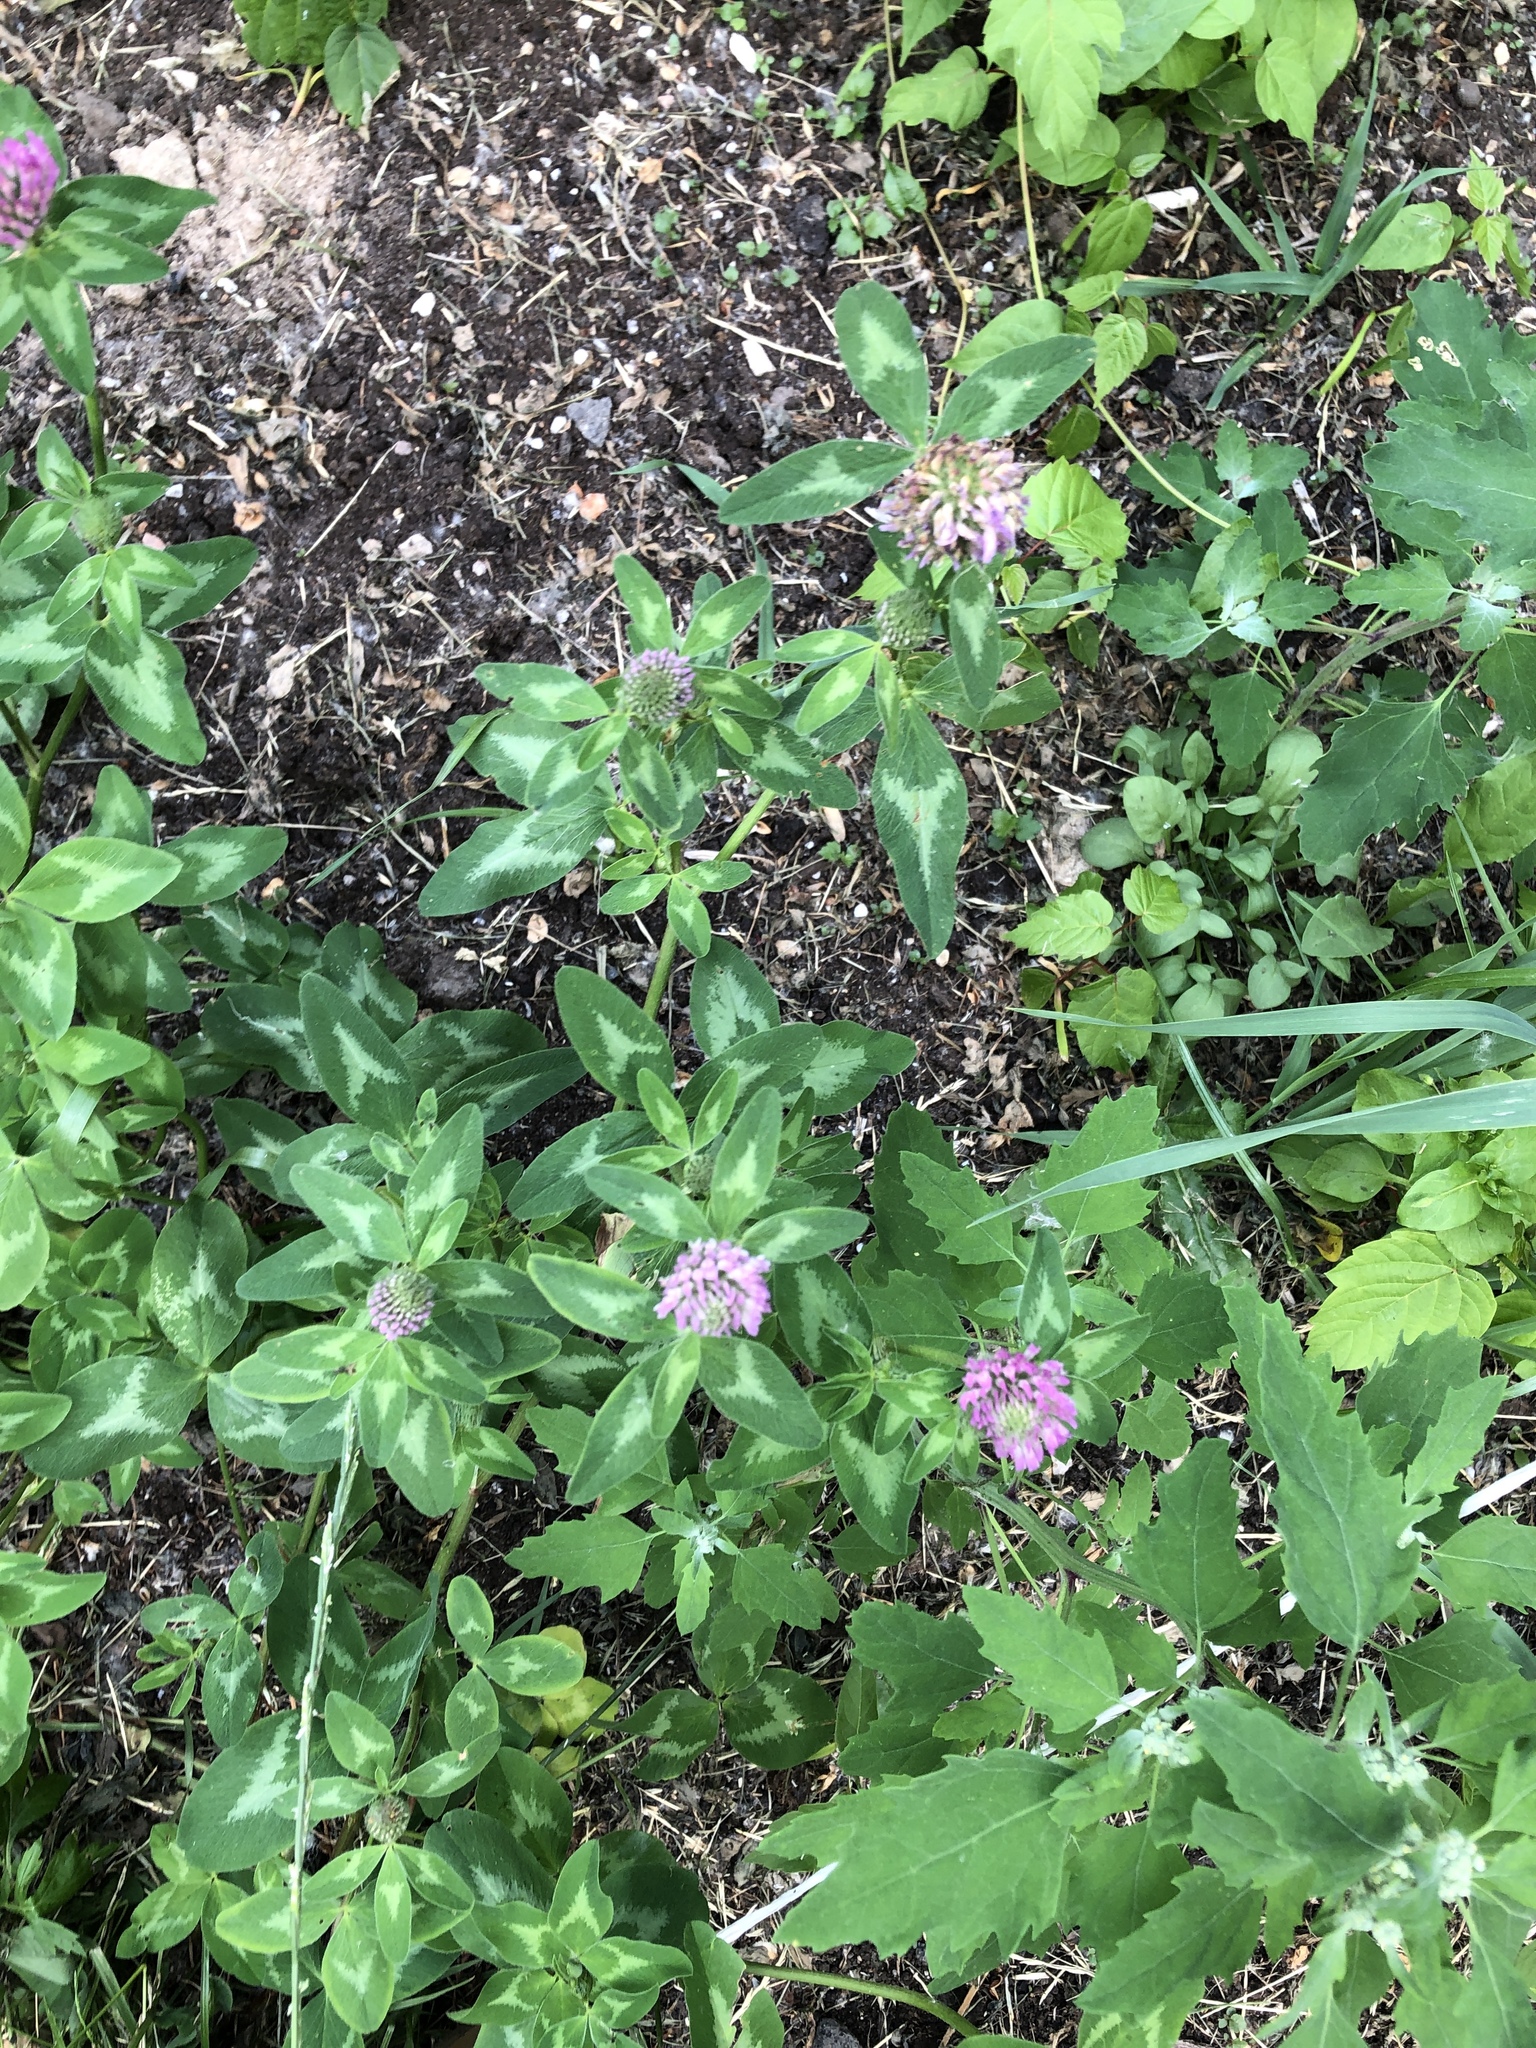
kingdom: Plantae
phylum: Tracheophyta
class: Magnoliopsida
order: Fabales
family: Fabaceae
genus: Trifolium
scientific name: Trifolium pratense
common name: Red clover
